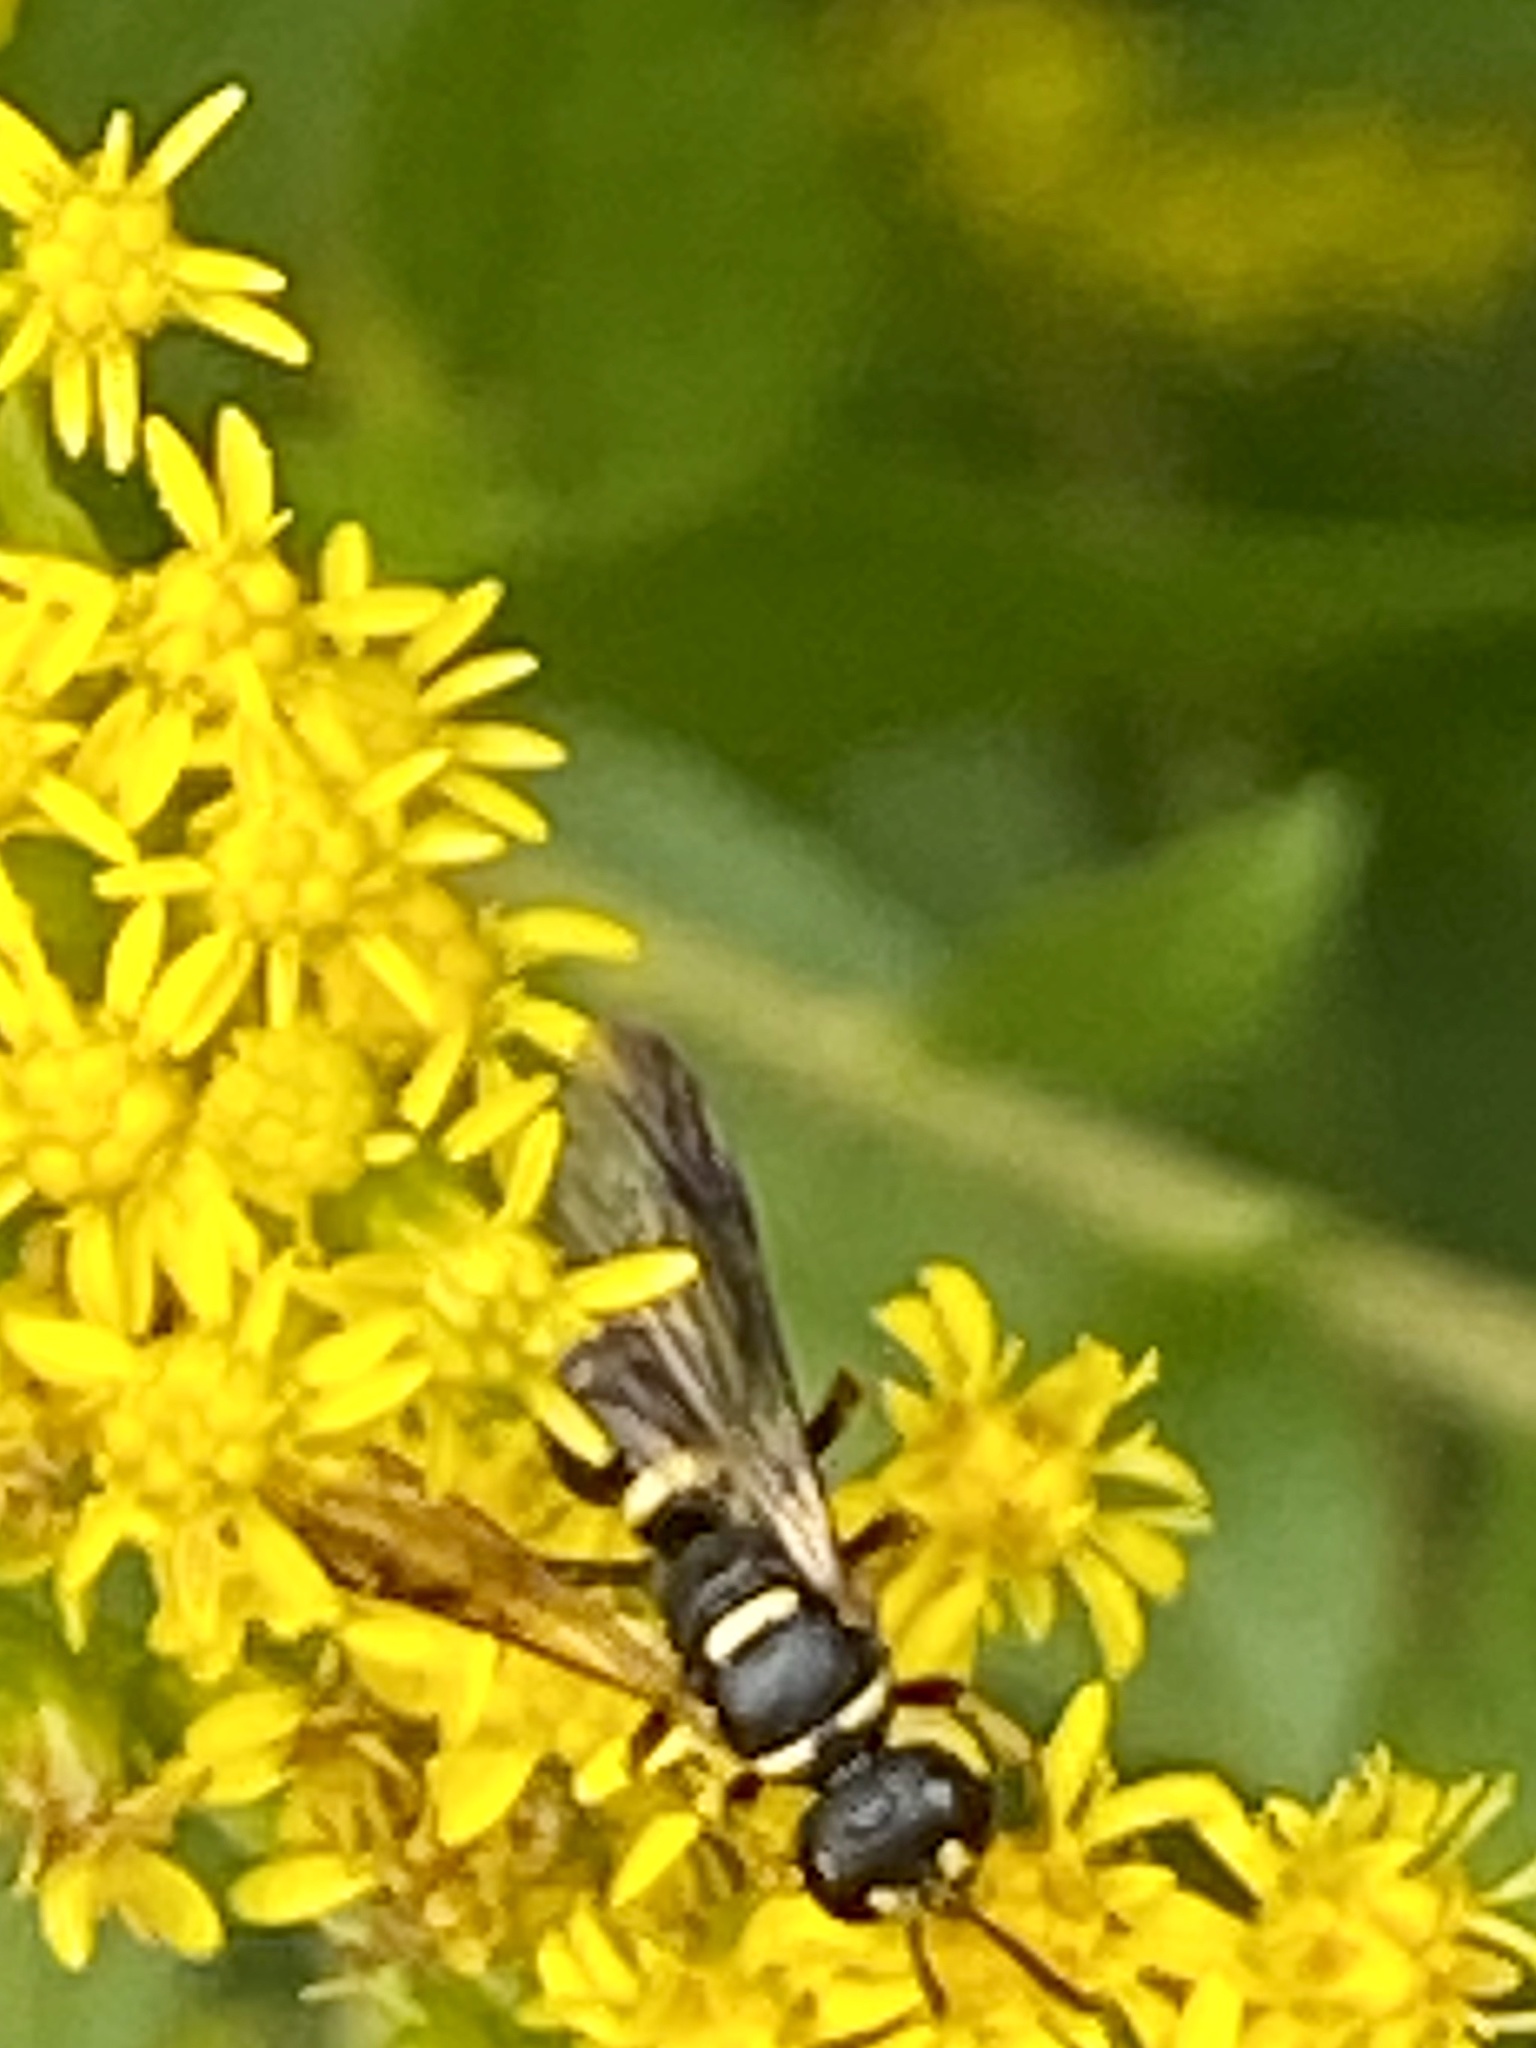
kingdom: Animalia
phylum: Arthropoda
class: Insecta
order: Hymenoptera
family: Crabronidae
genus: Cerceris
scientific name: Cerceris insolita
